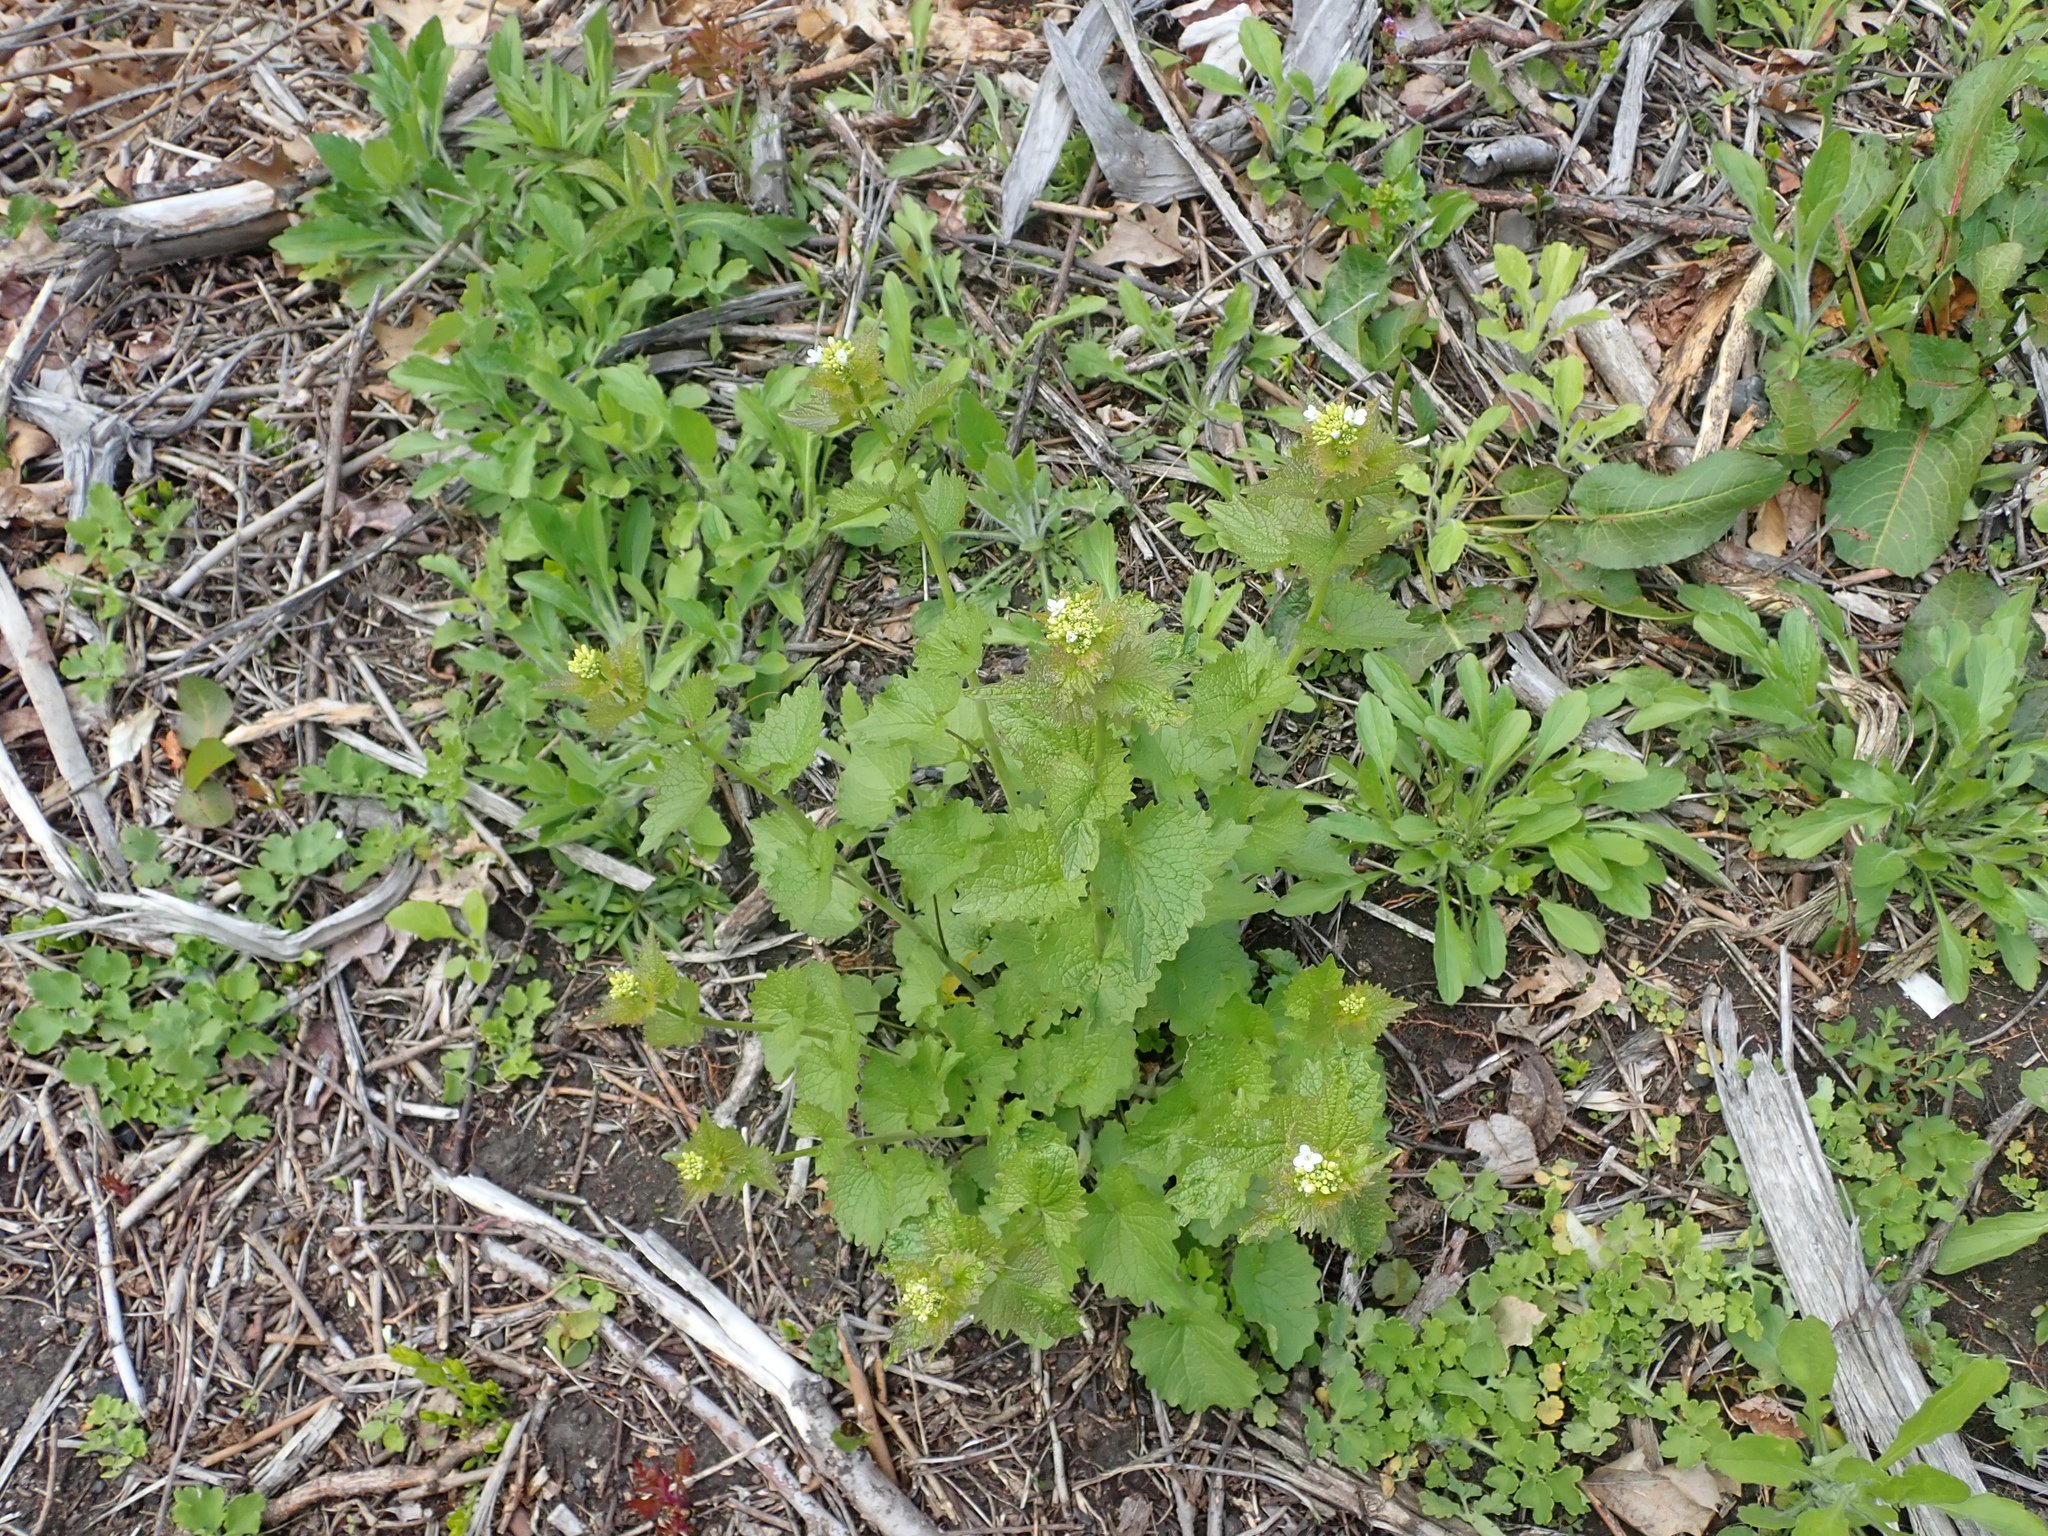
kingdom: Plantae
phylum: Tracheophyta
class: Magnoliopsida
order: Brassicales
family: Brassicaceae
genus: Alliaria
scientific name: Alliaria petiolata
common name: Garlic mustard
